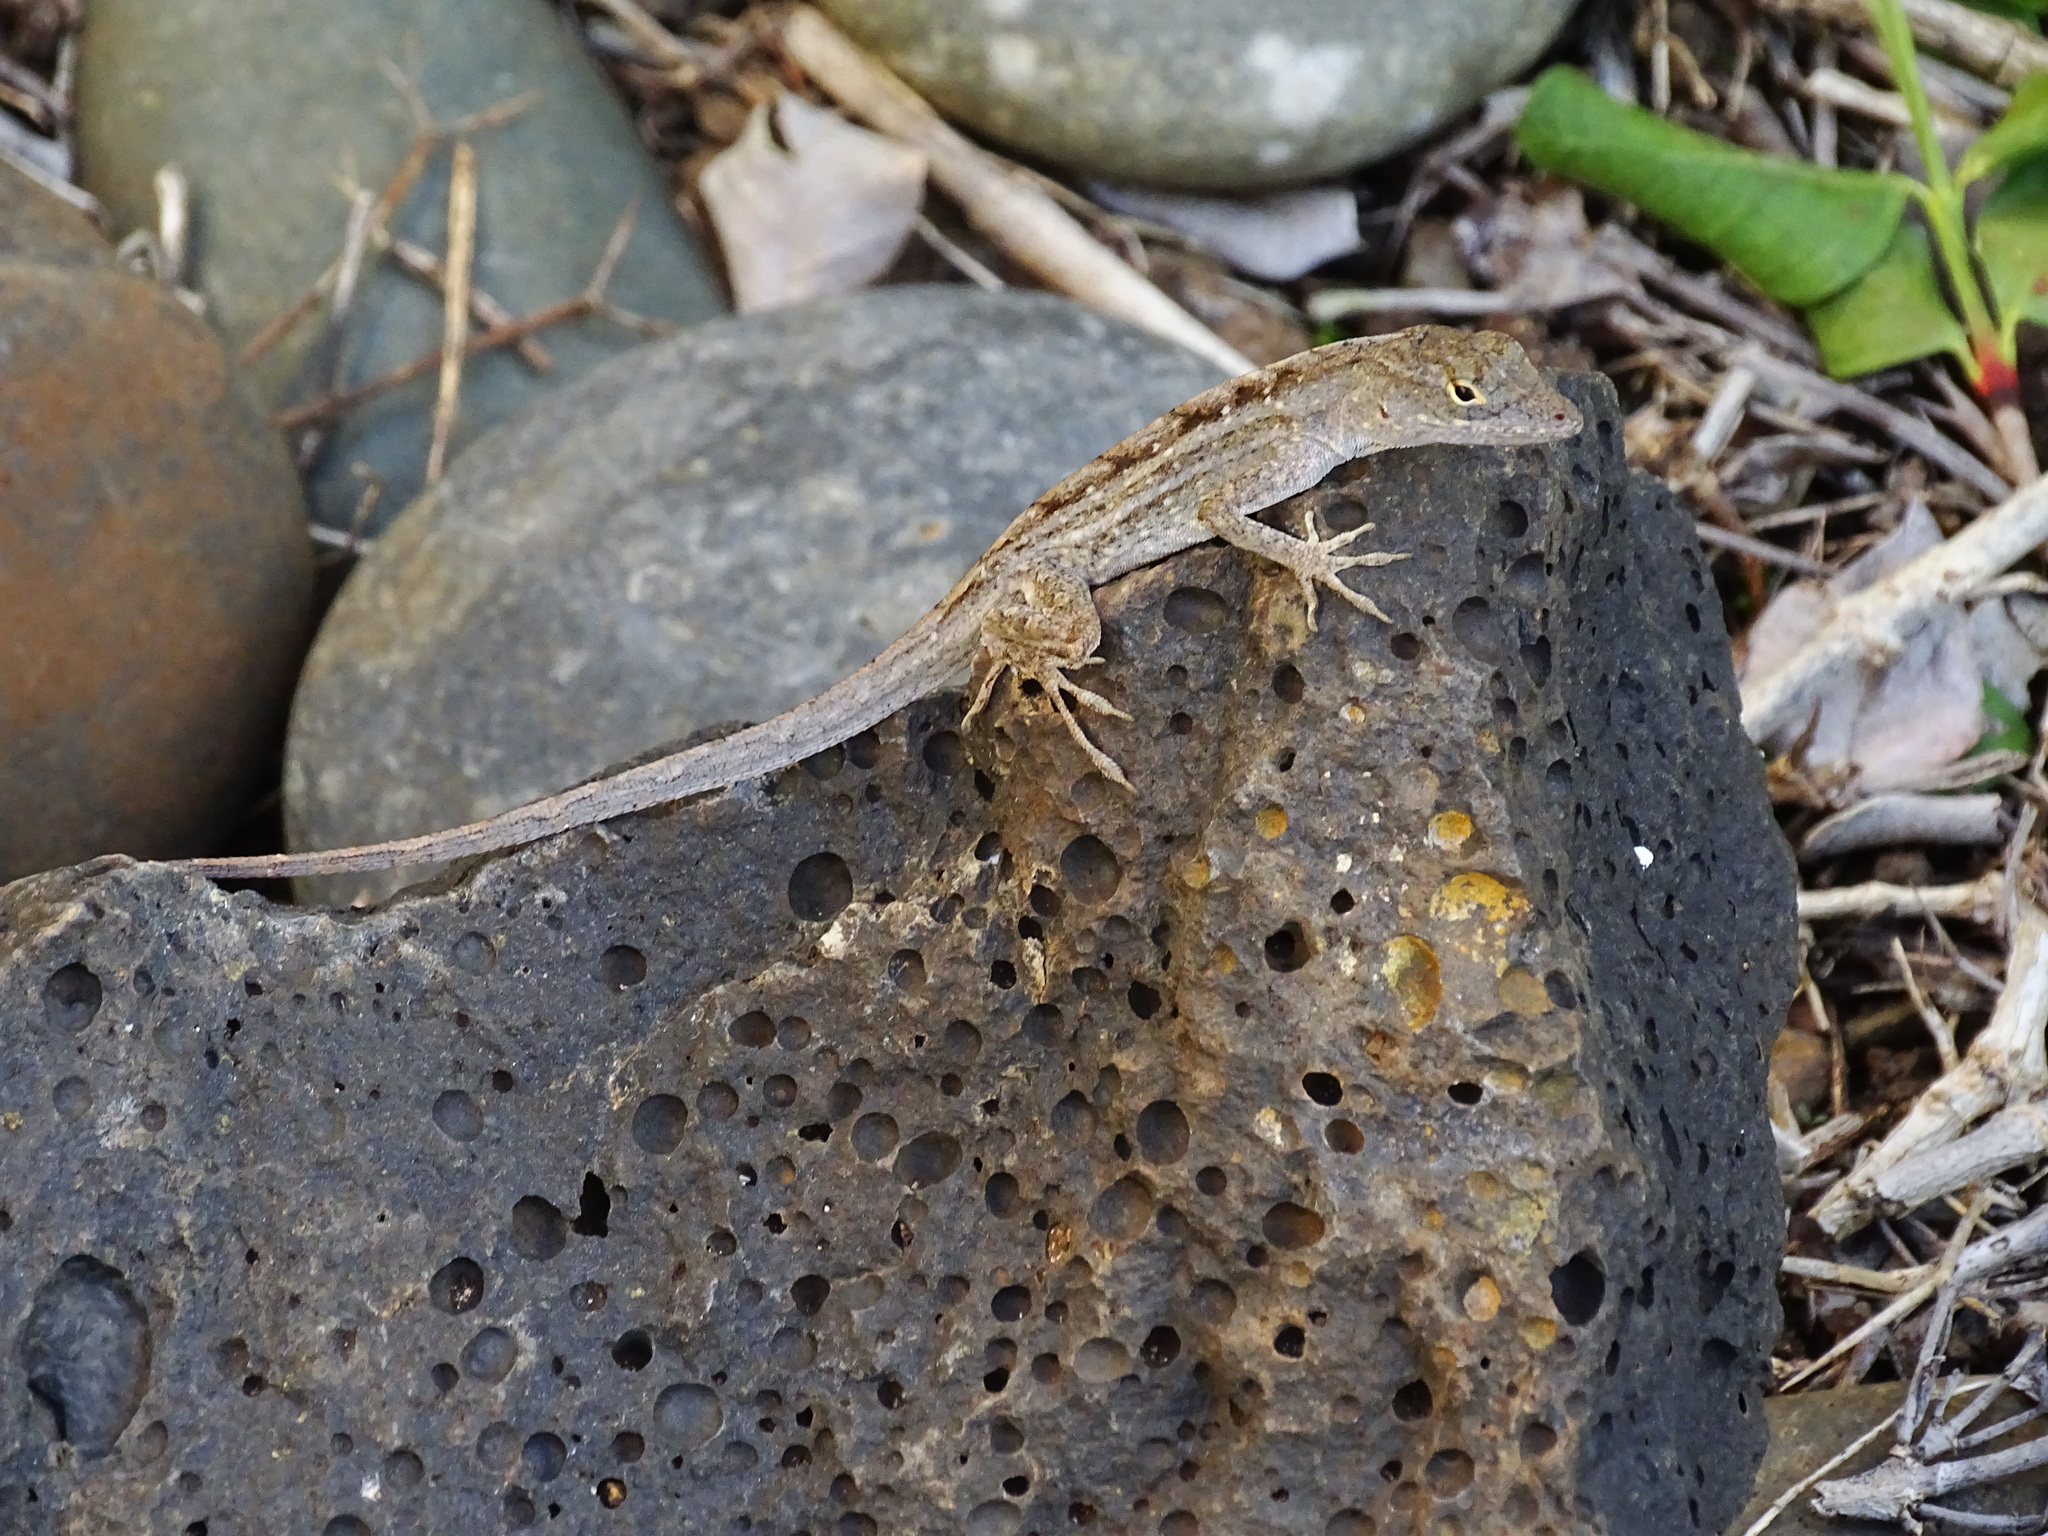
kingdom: Animalia
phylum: Chordata
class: Squamata
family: Dactyloidae
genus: Anolis
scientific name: Anolis sagrei
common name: Brown anole
